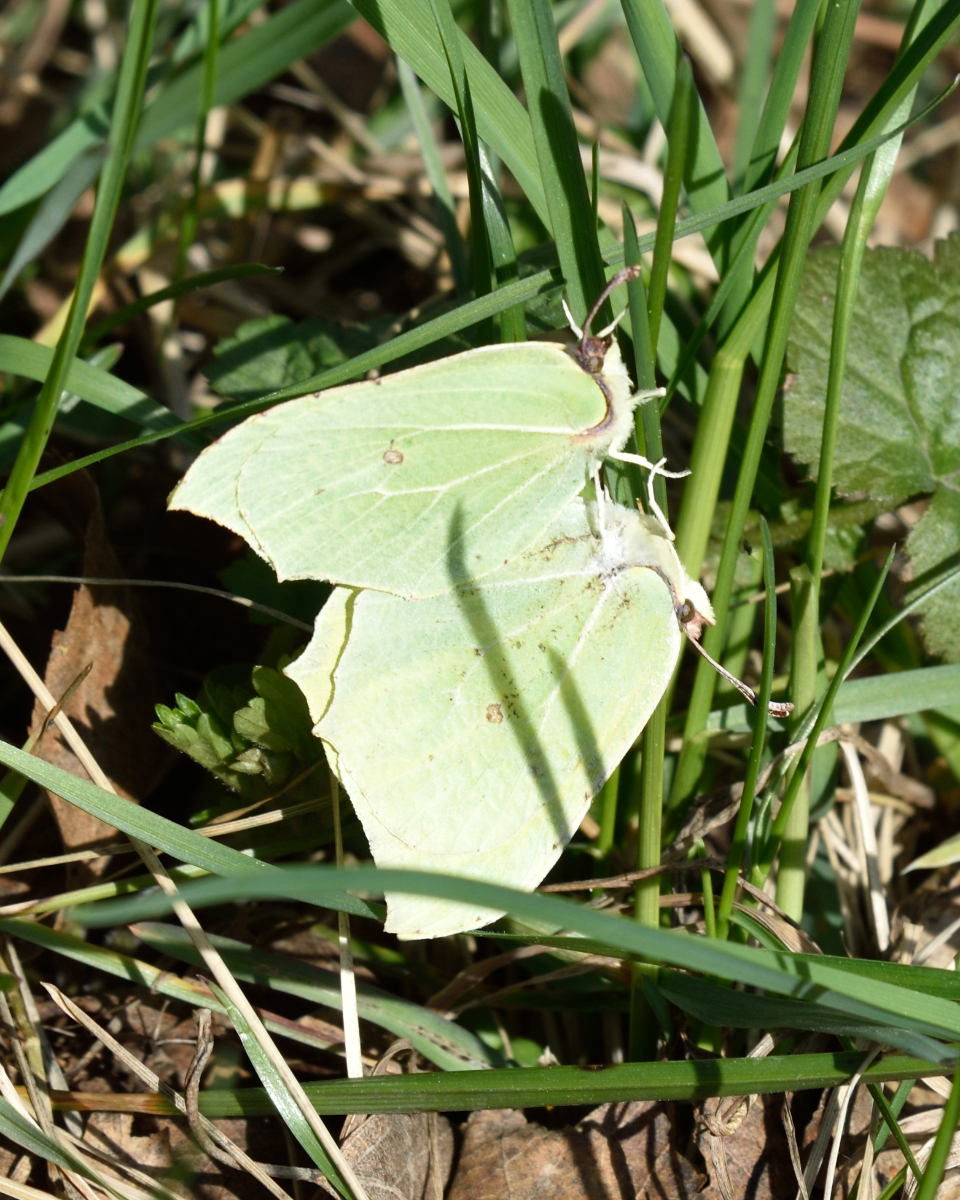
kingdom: Animalia
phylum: Arthropoda
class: Insecta
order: Lepidoptera
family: Pieridae
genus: Gonepteryx
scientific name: Gonepteryx rhamni
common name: Brimstone
